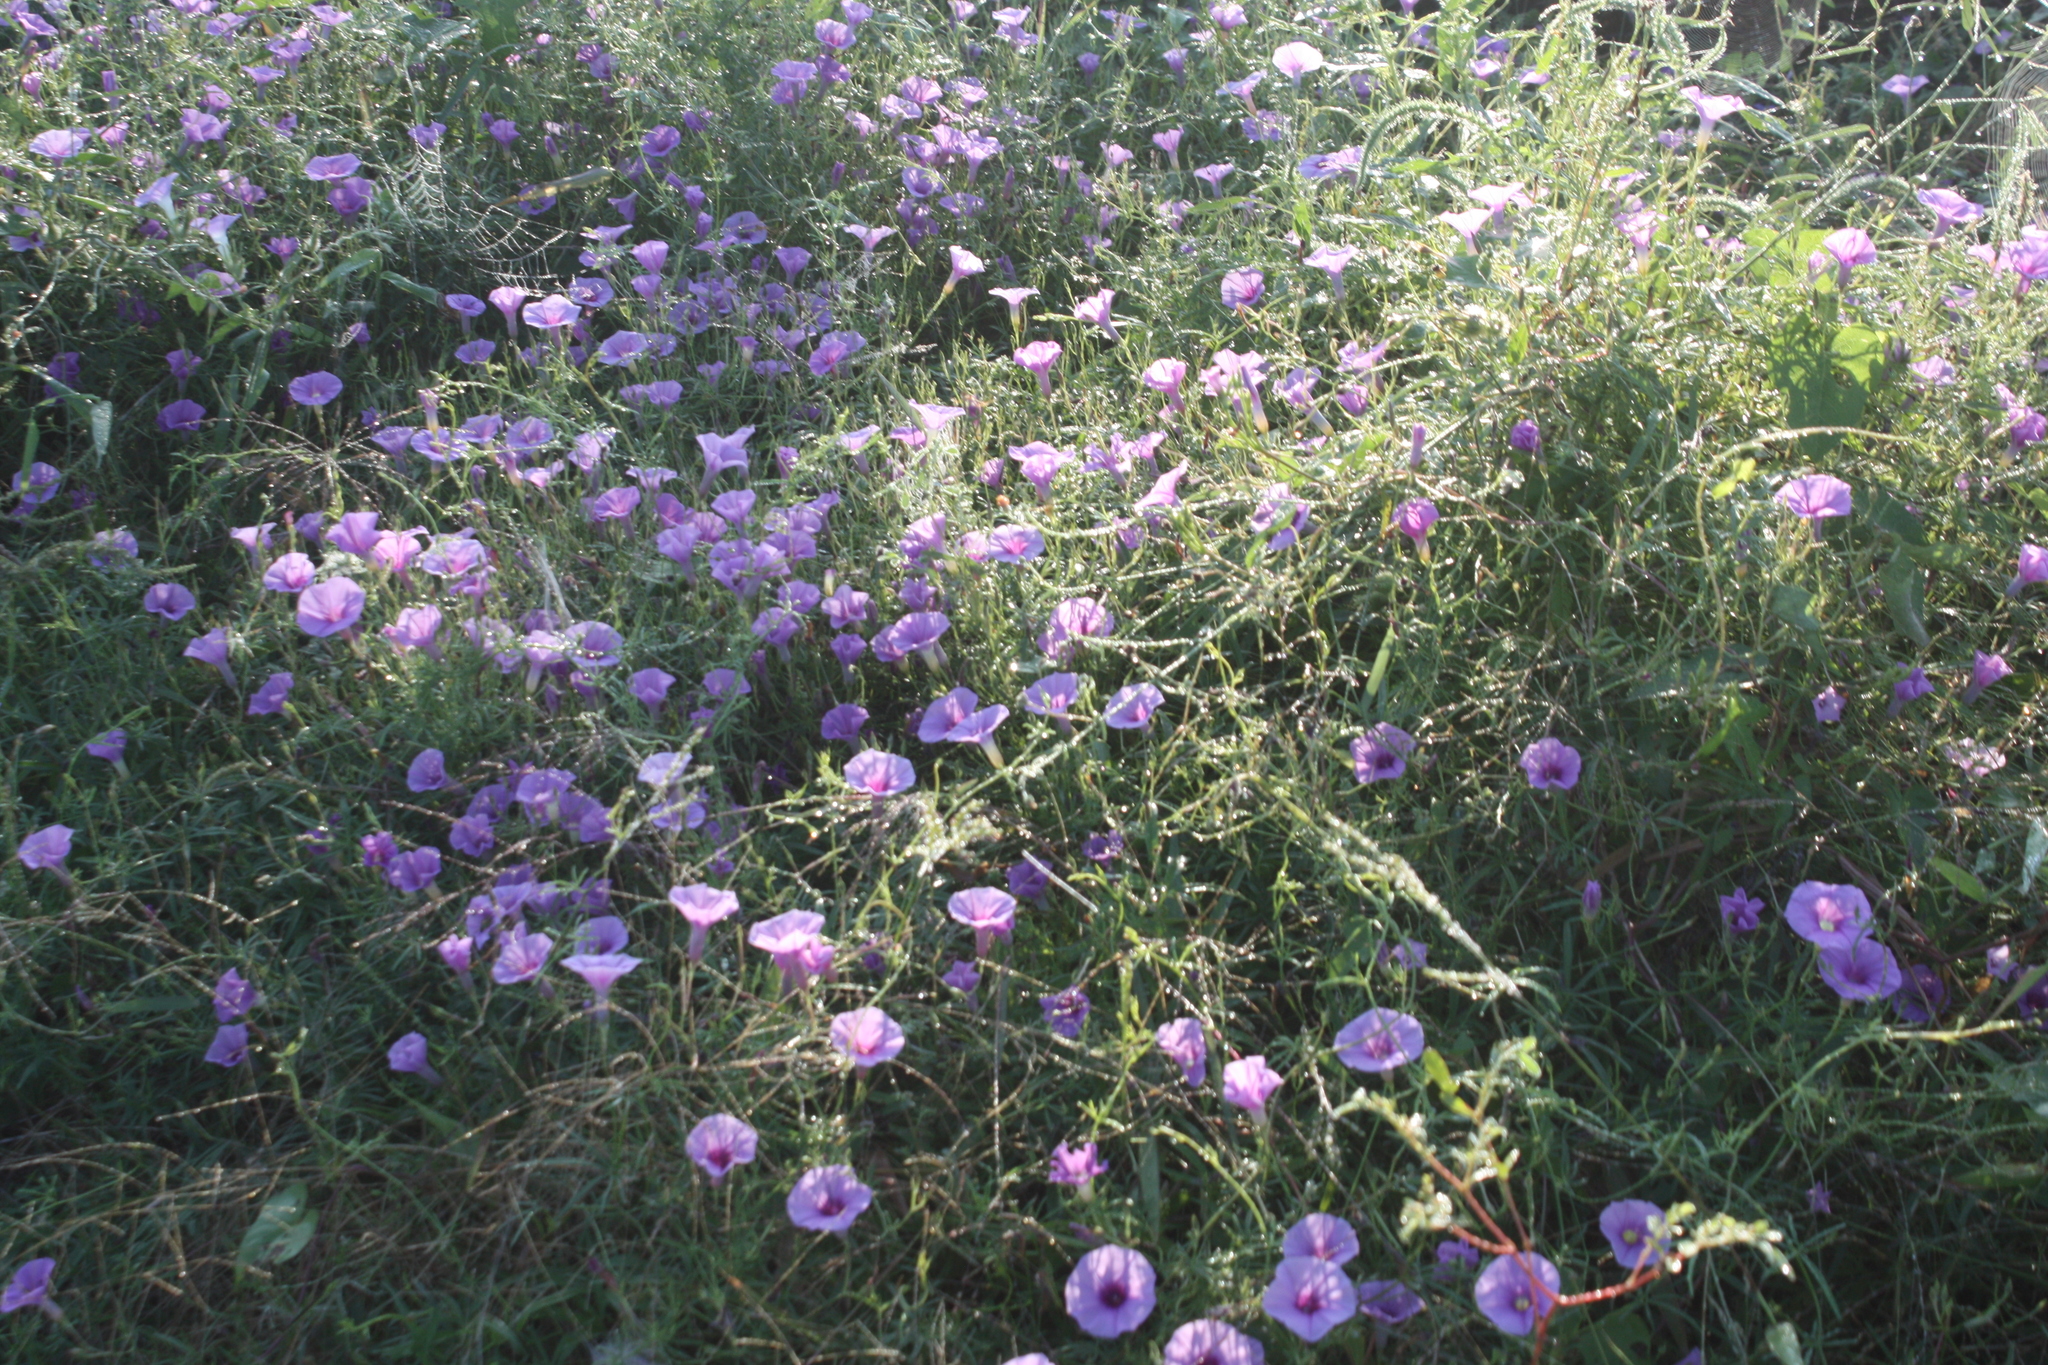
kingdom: Plantae
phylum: Tracheophyta
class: Magnoliopsida
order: Solanales
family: Convolvulaceae
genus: Ipomoea
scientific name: Ipomoea ternifolia
